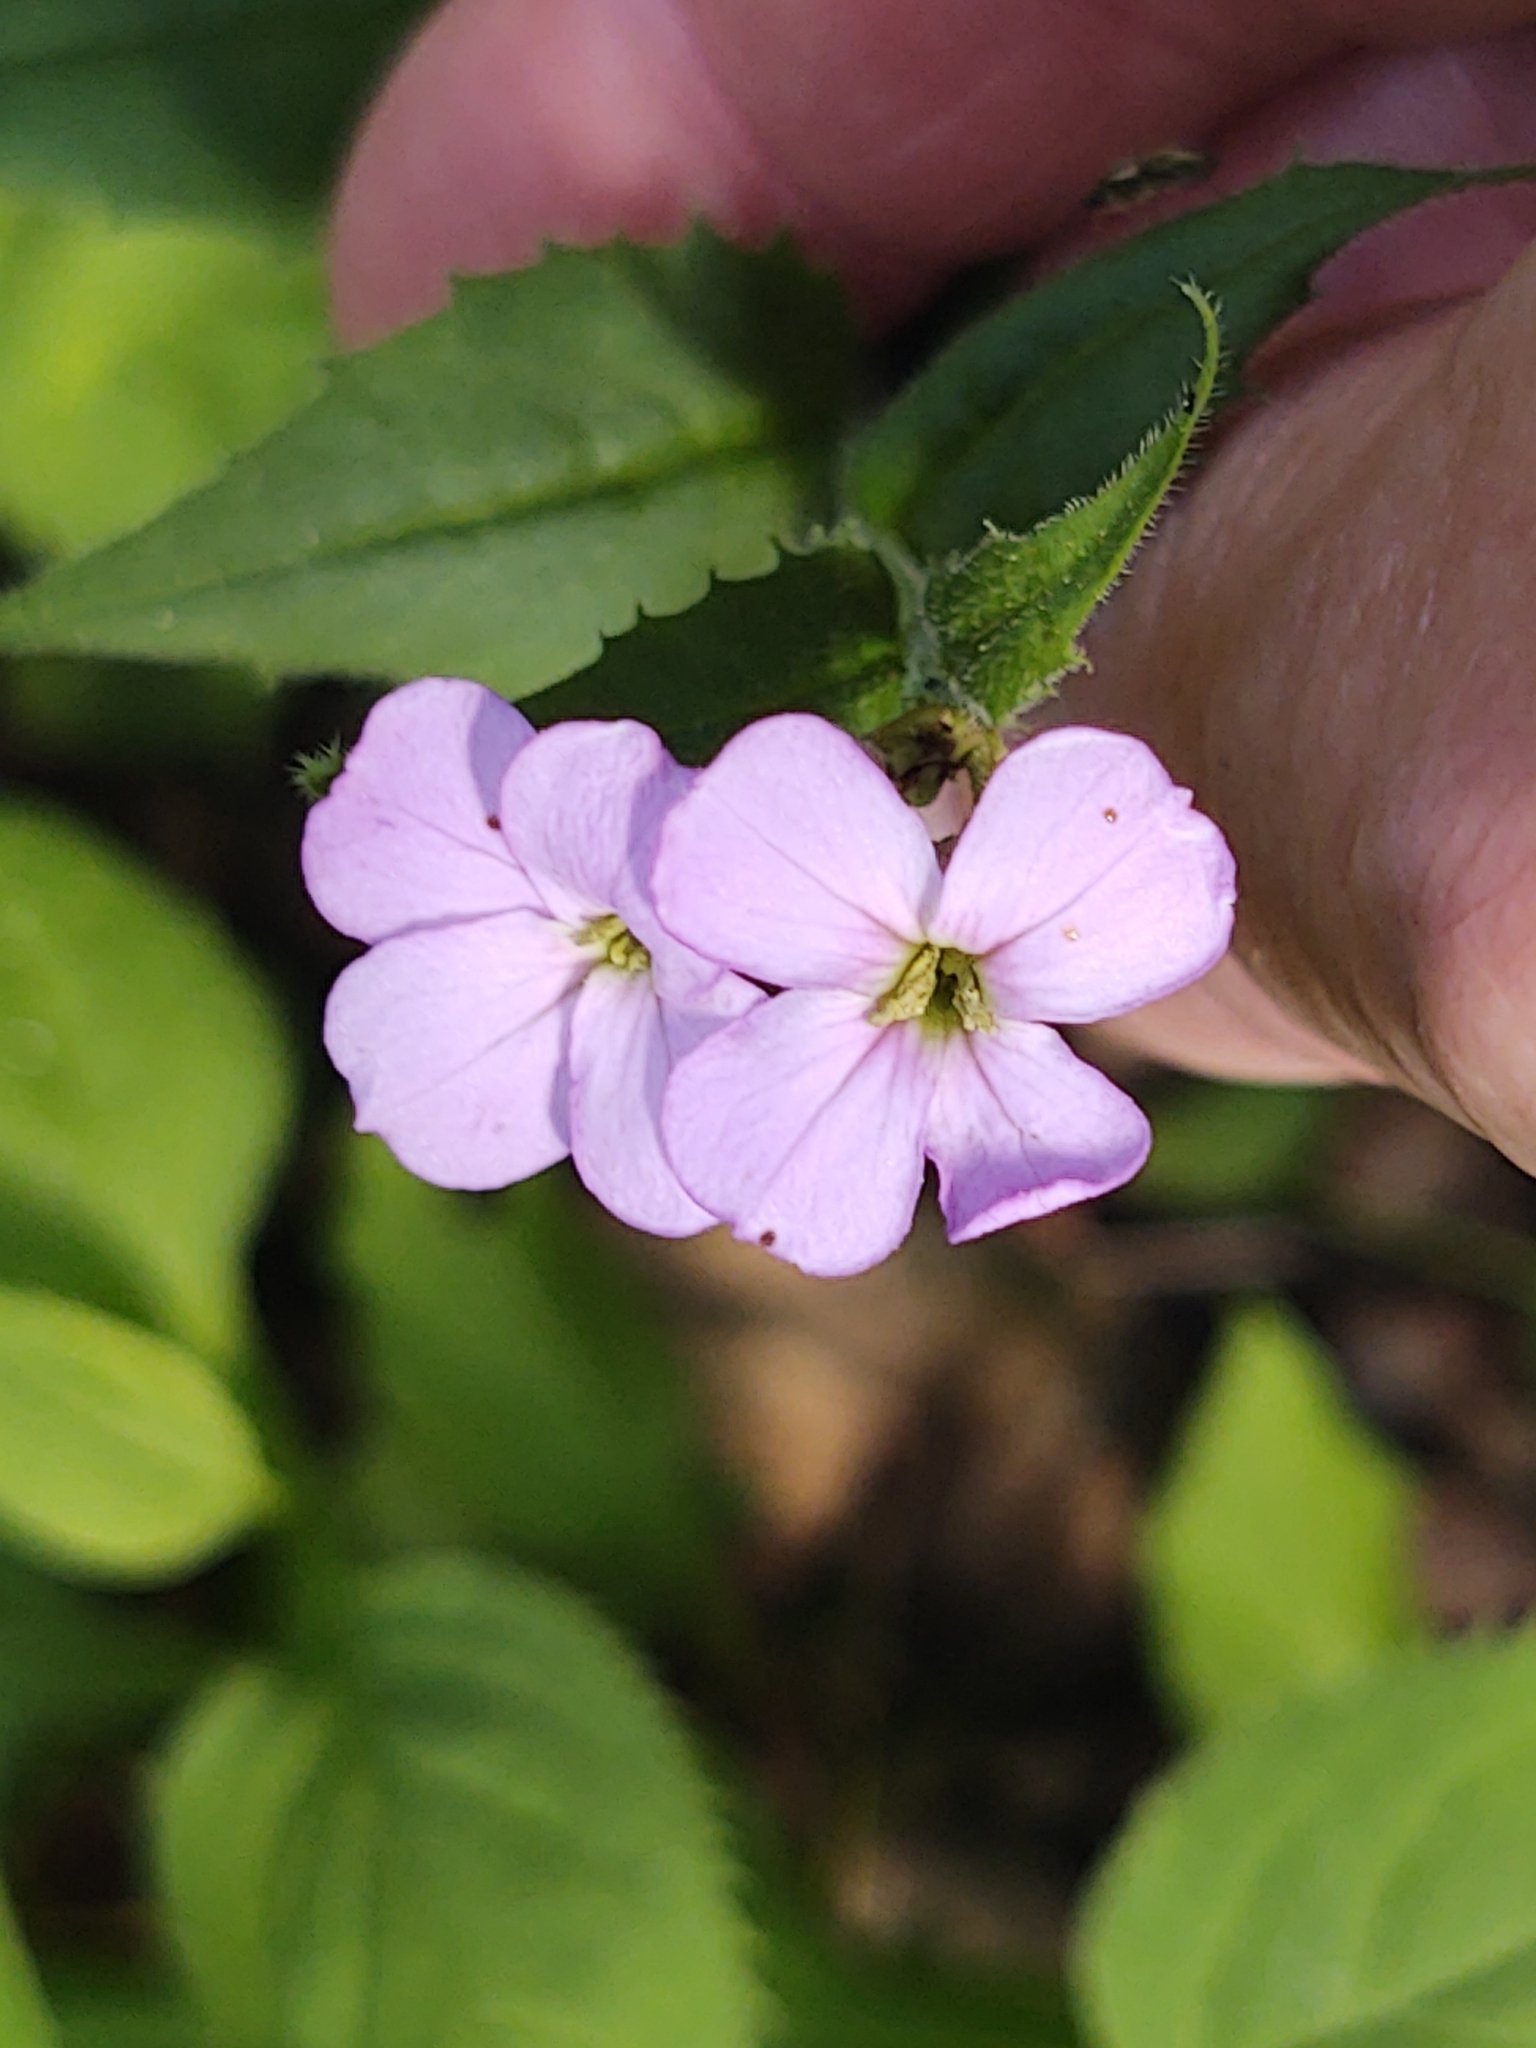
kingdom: Plantae
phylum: Tracheophyta
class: Magnoliopsida
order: Brassicales
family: Brassicaceae
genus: Hesperis
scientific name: Hesperis matronalis
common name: Dame's-violet
